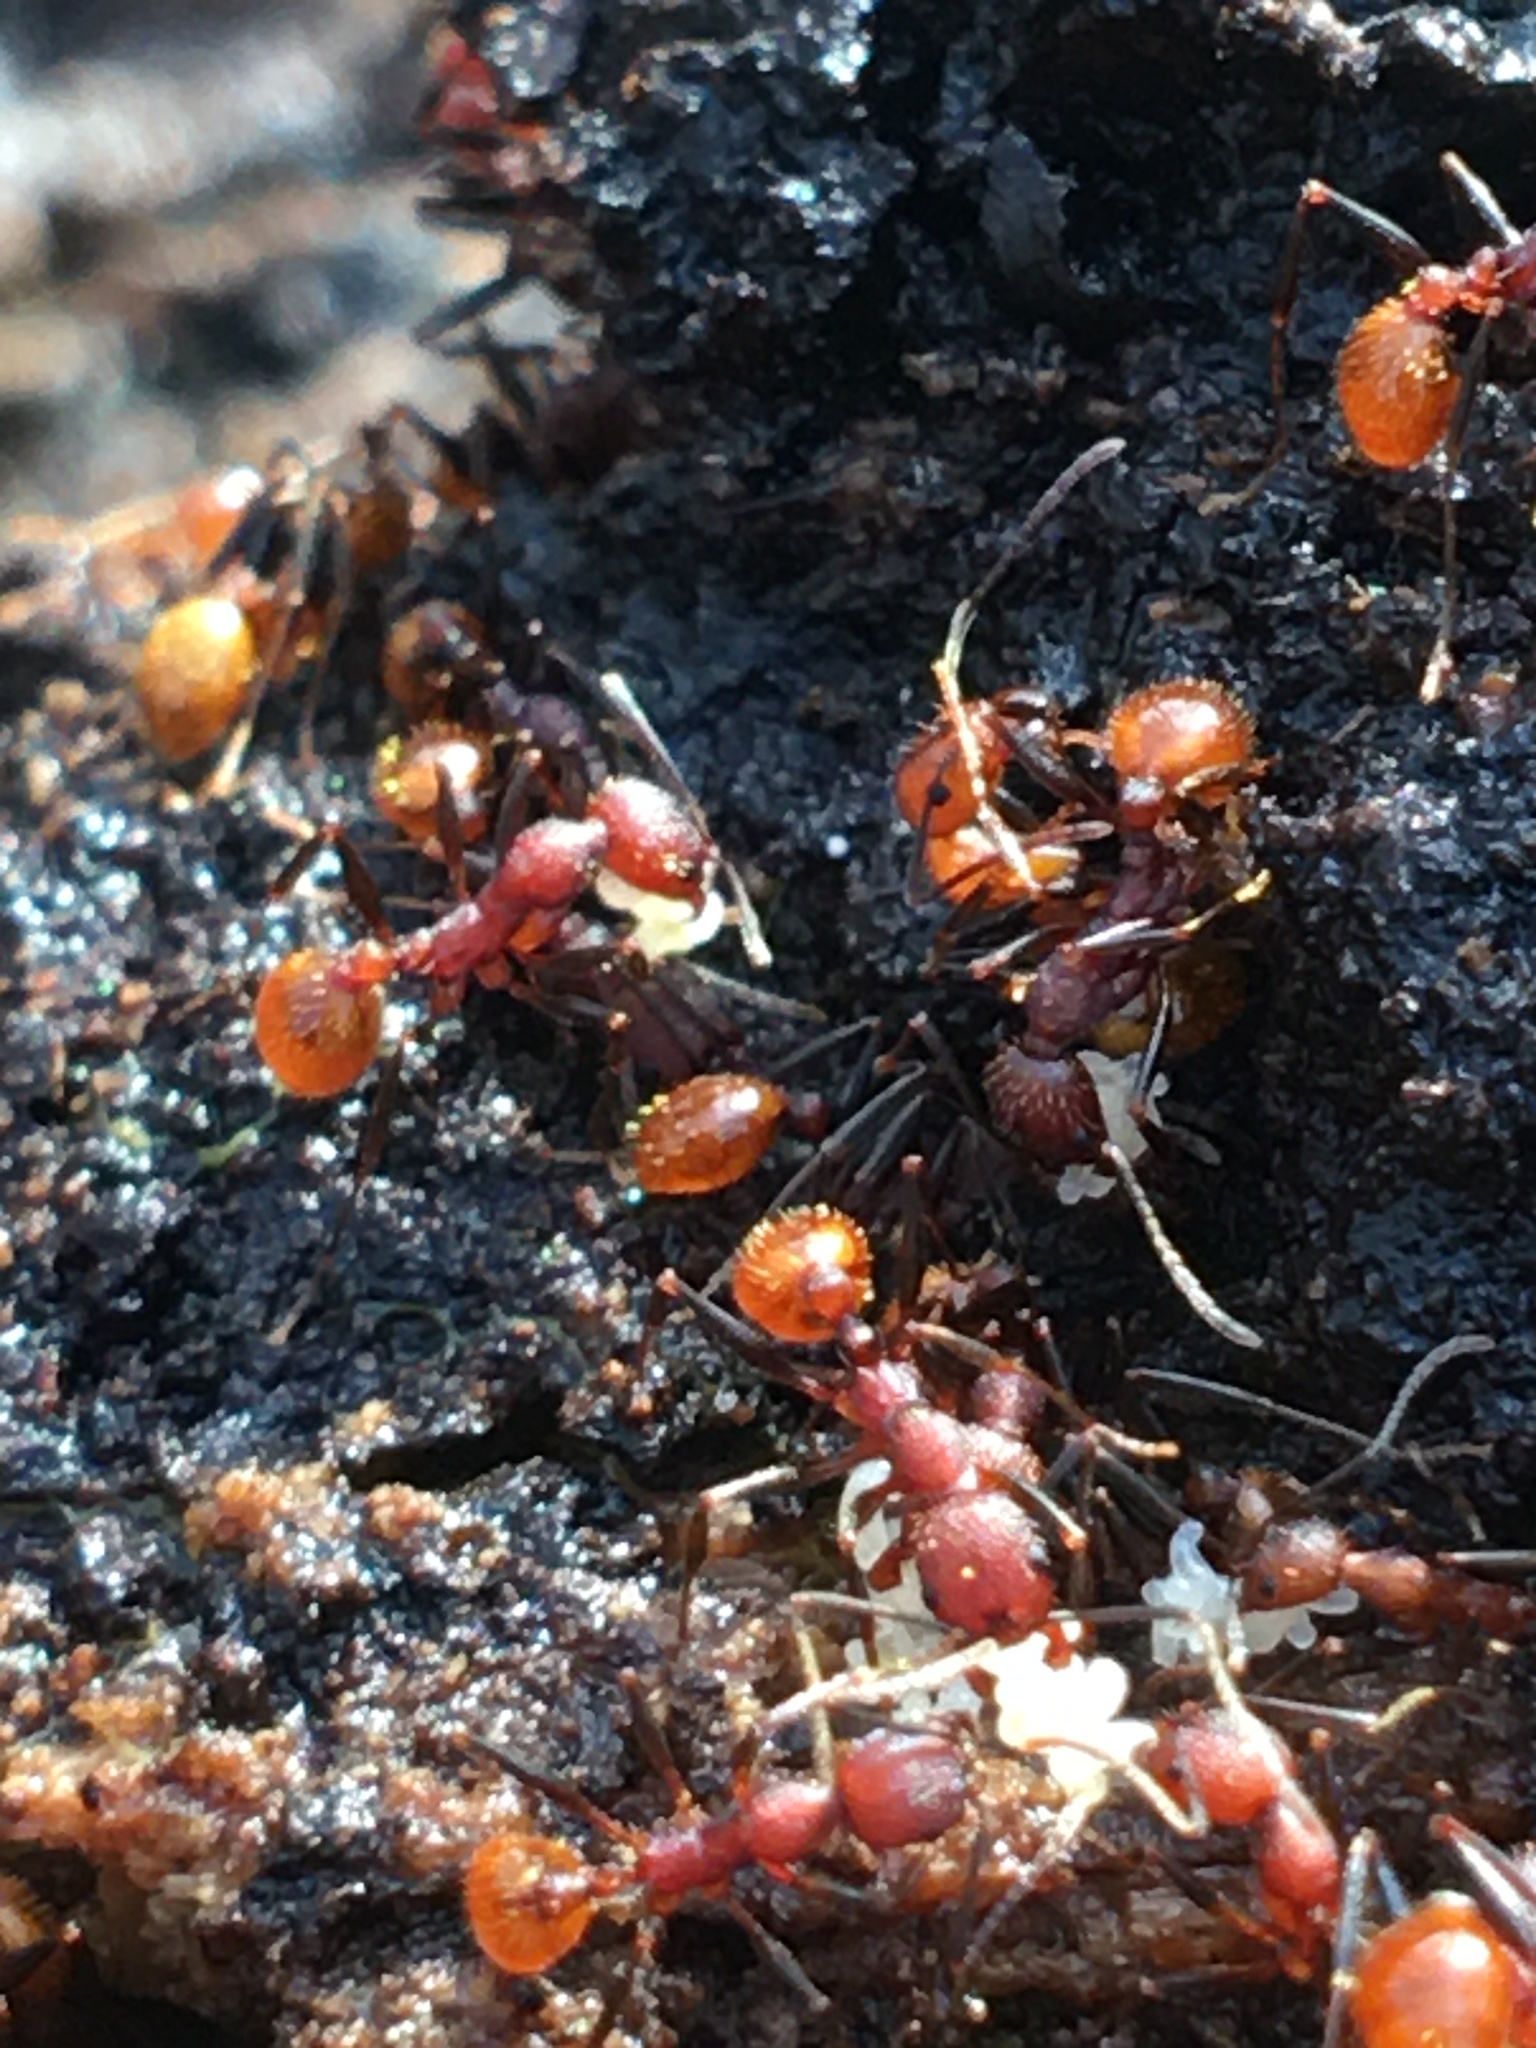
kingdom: Animalia
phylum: Arthropoda
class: Insecta
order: Hymenoptera
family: Formicidae
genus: Aphaenogaster
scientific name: Aphaenogaster tennesseensis
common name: Tennessee thread-waisted ant
